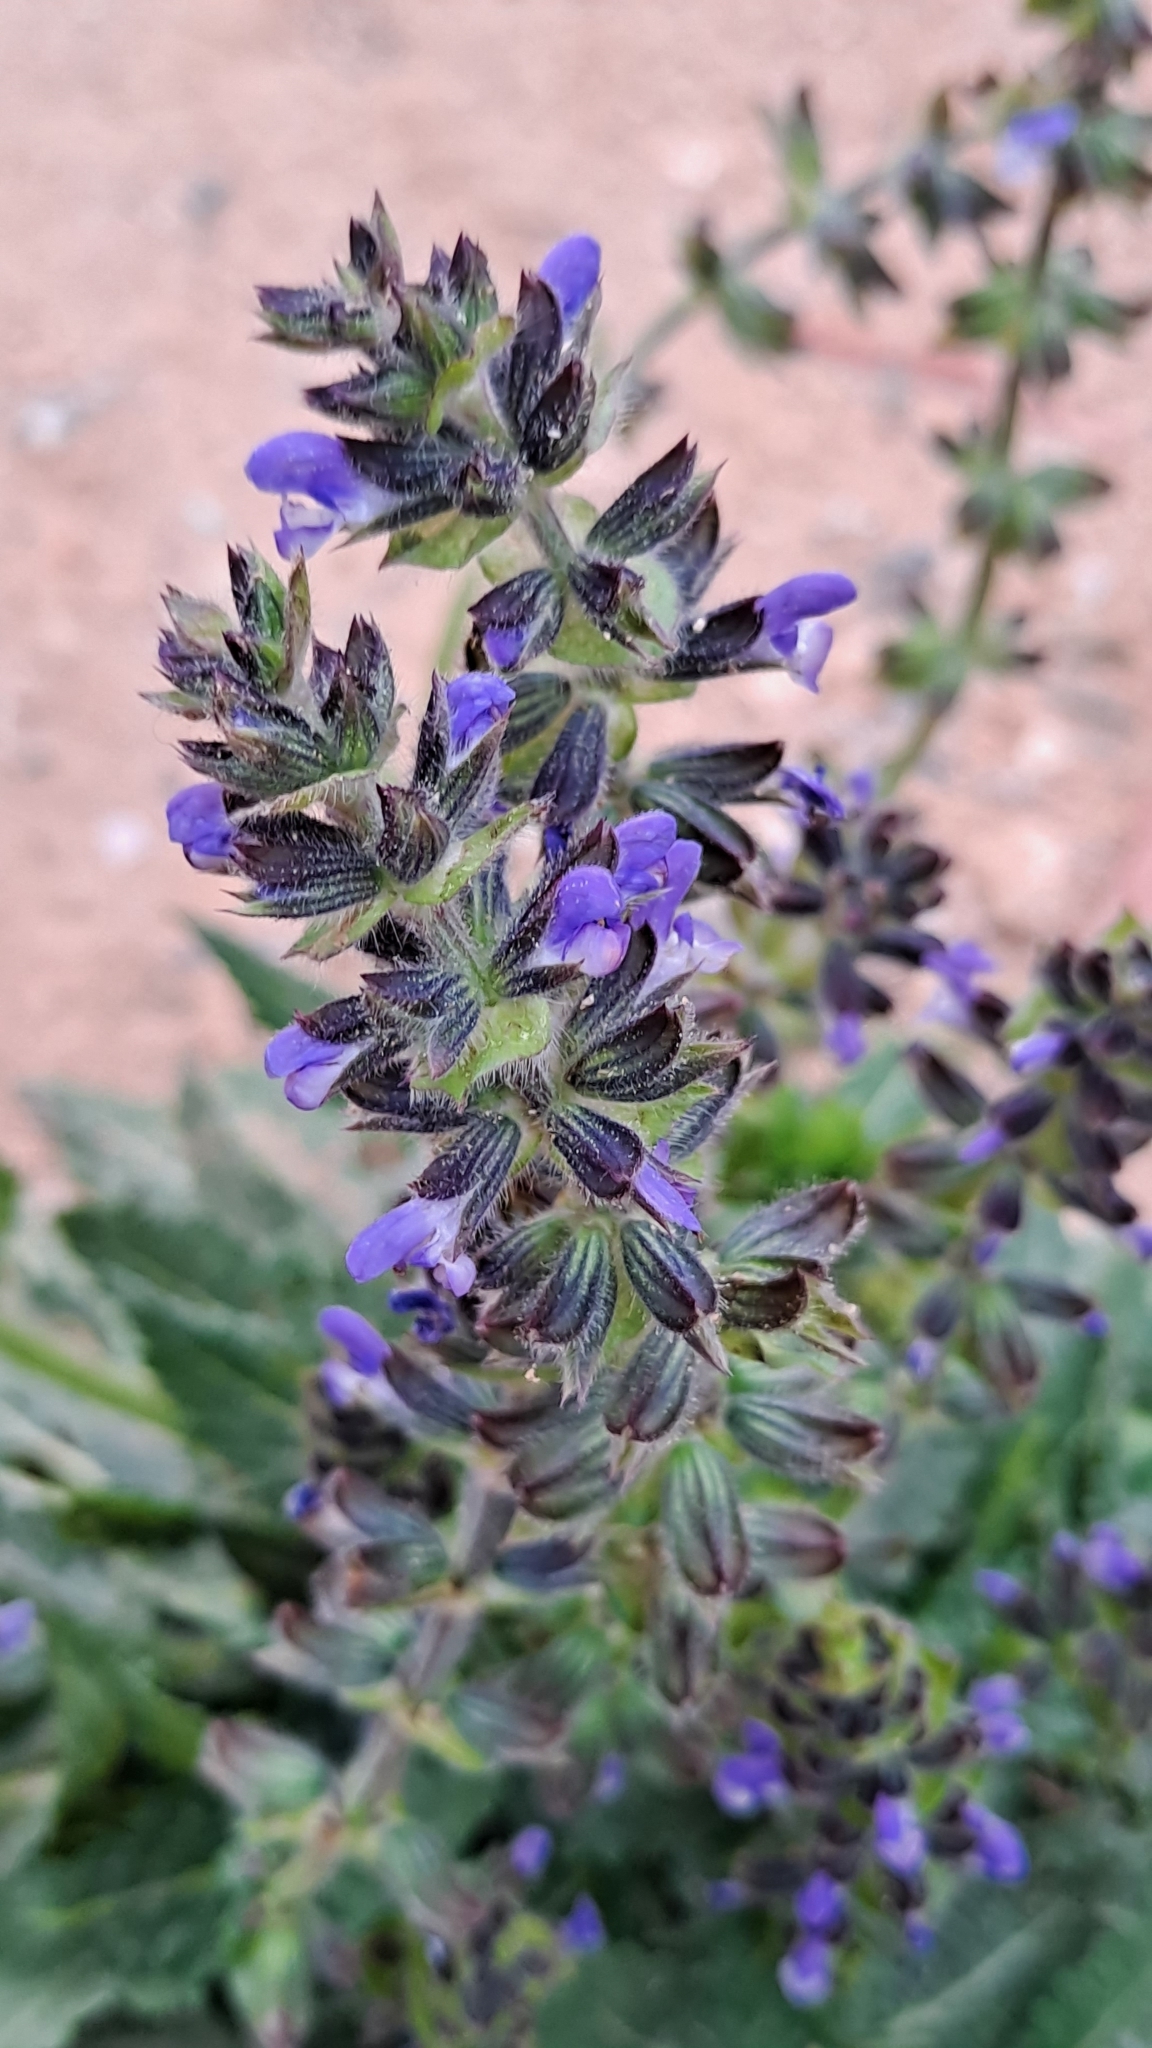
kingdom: Plantae
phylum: Tracheophyta
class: Magnoliopsida
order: Lamiales
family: Lamiaceae
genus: Salvia
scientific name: Salvia verbenaca
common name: Wild clary
